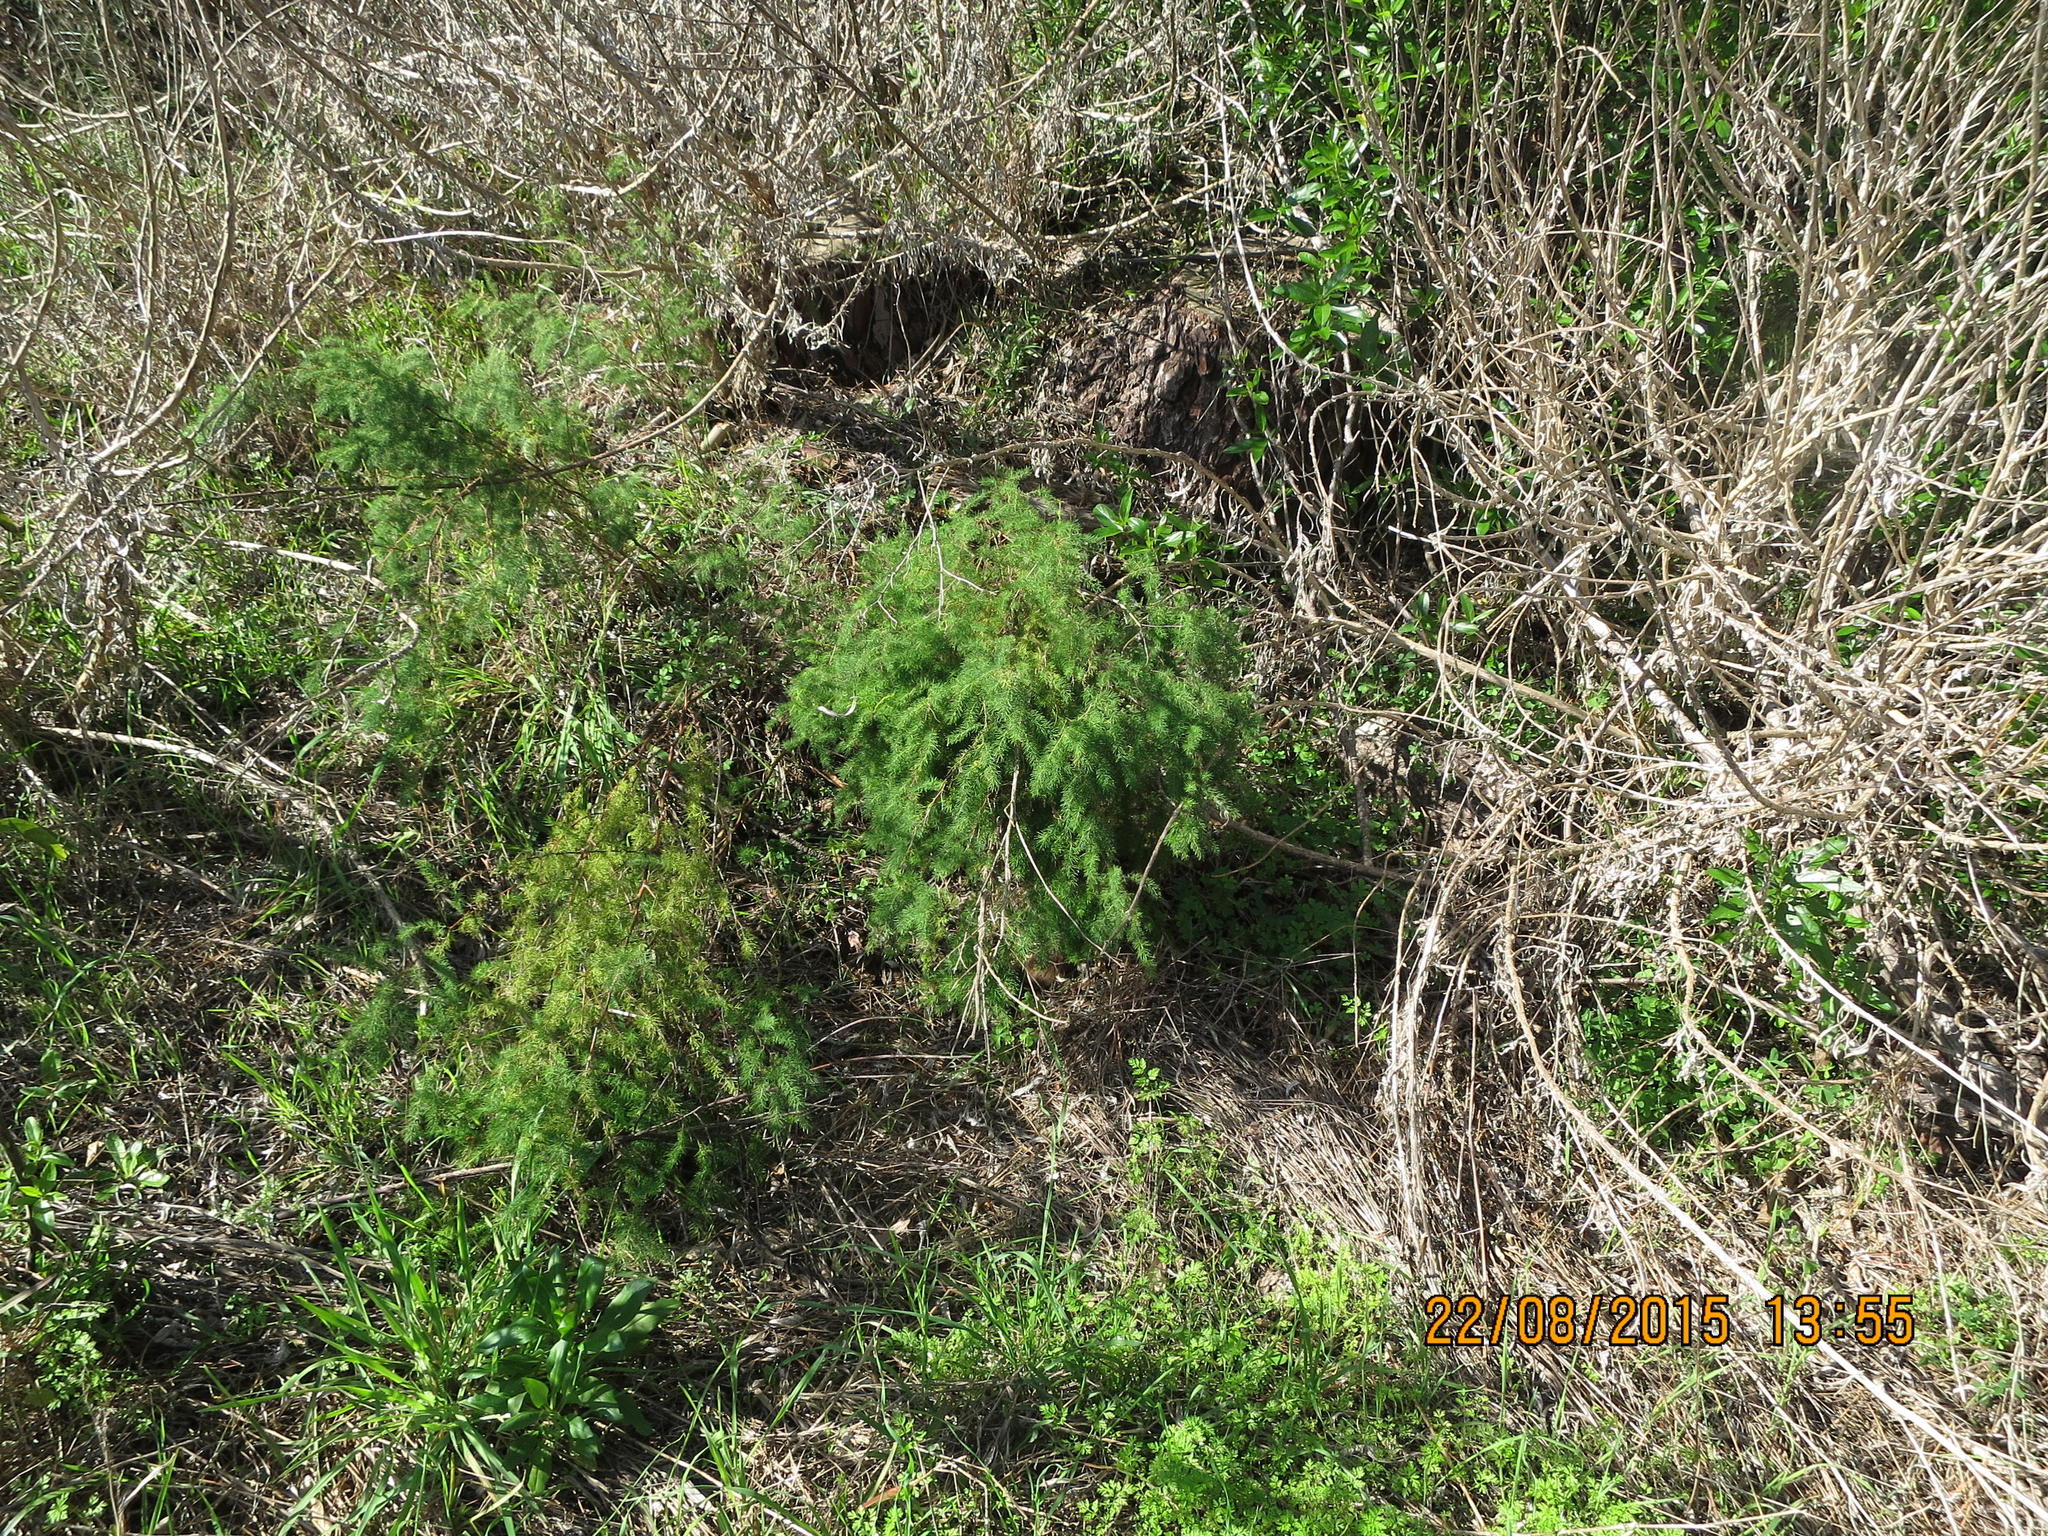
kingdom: Plantae
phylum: Tracheophyta
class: Liliopsida
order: Asparagales
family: Asparagaceae
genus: Asparagus
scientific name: Asparagus rubicundus
